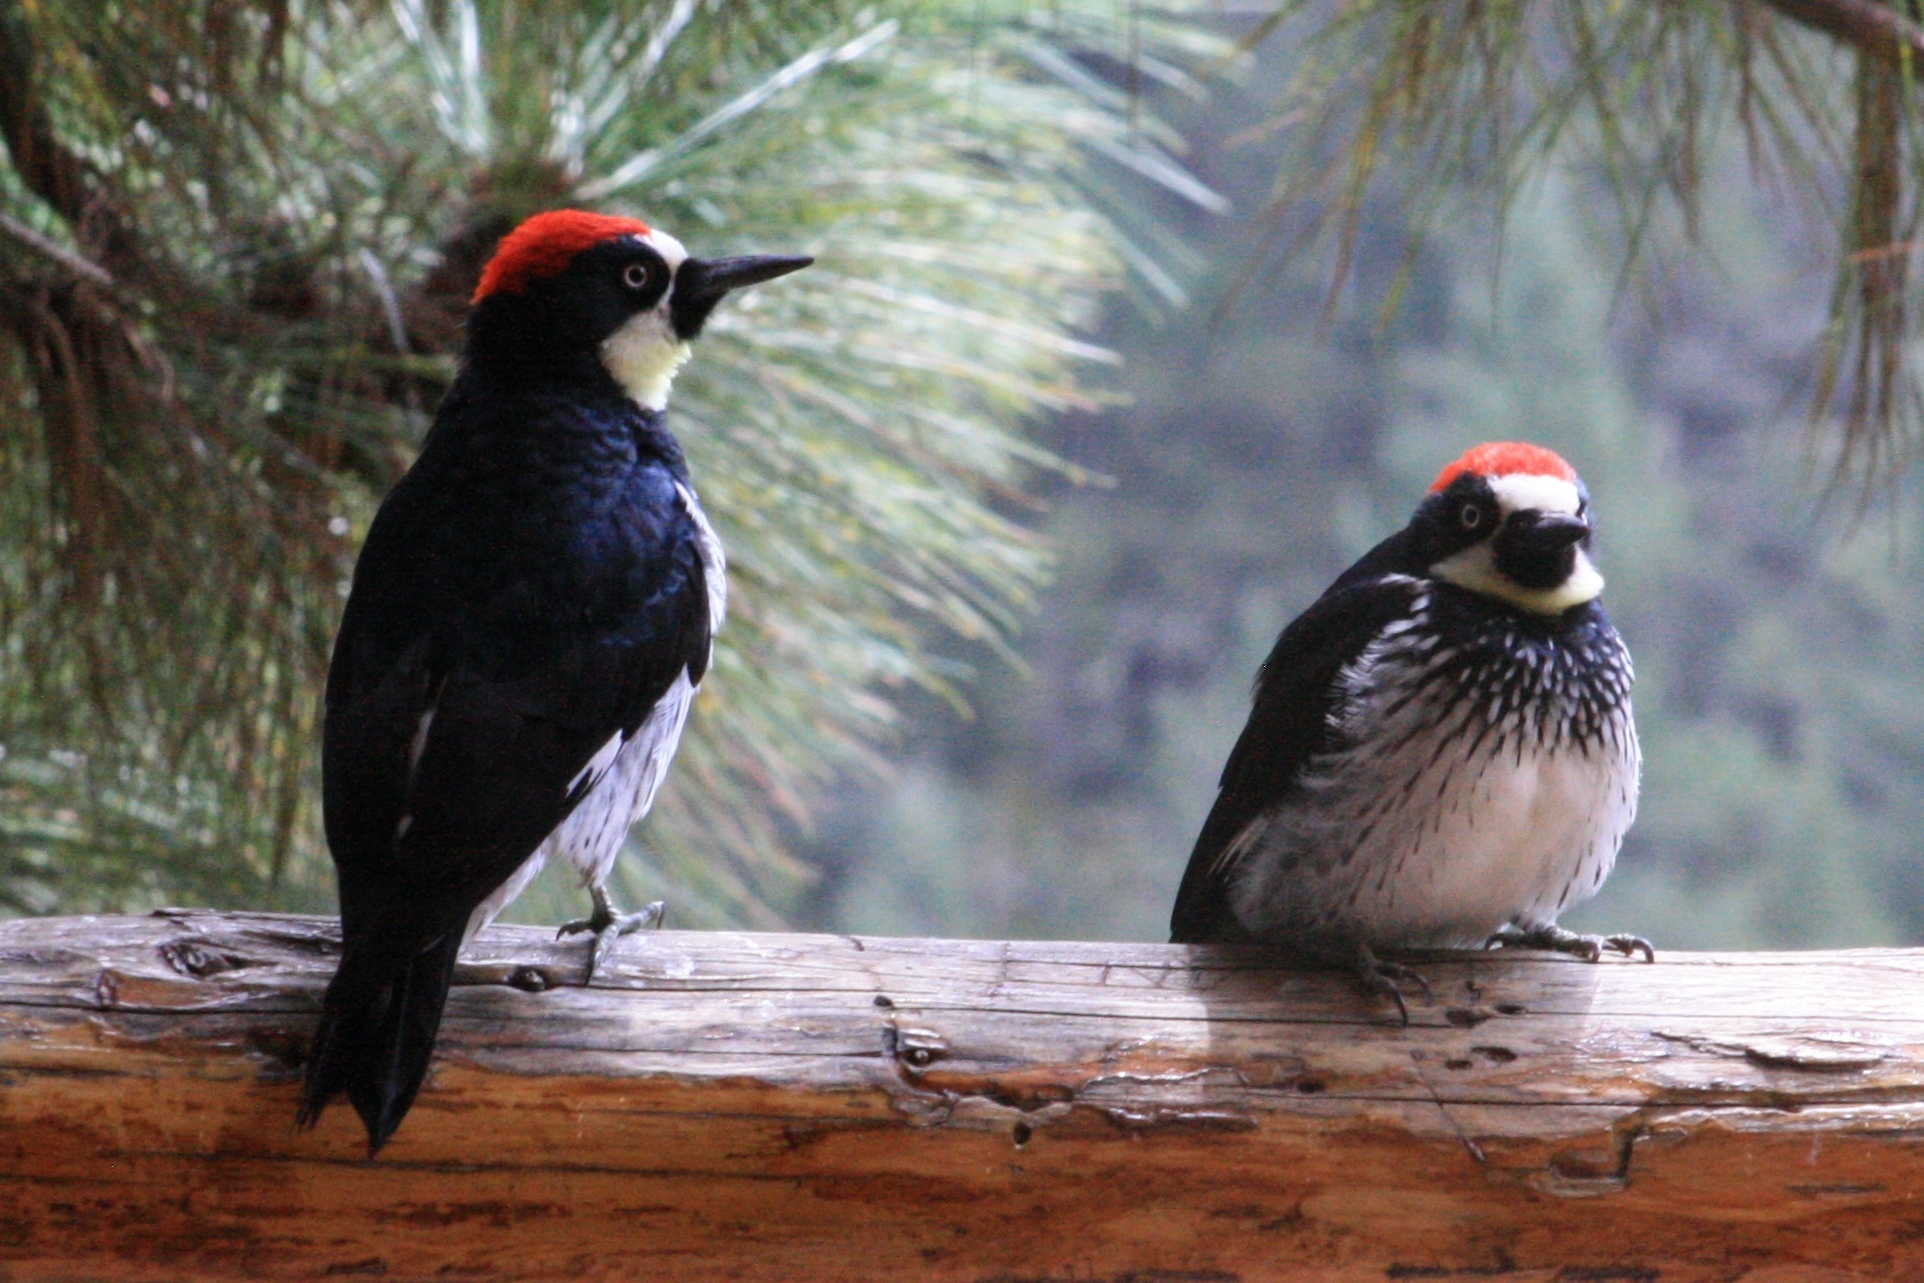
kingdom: Animalia
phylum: Chordata
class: Aves
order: Piciformes
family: Picidae
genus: Melanerpes
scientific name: Melanerpes formicivorus
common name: Acorn woodpecker
